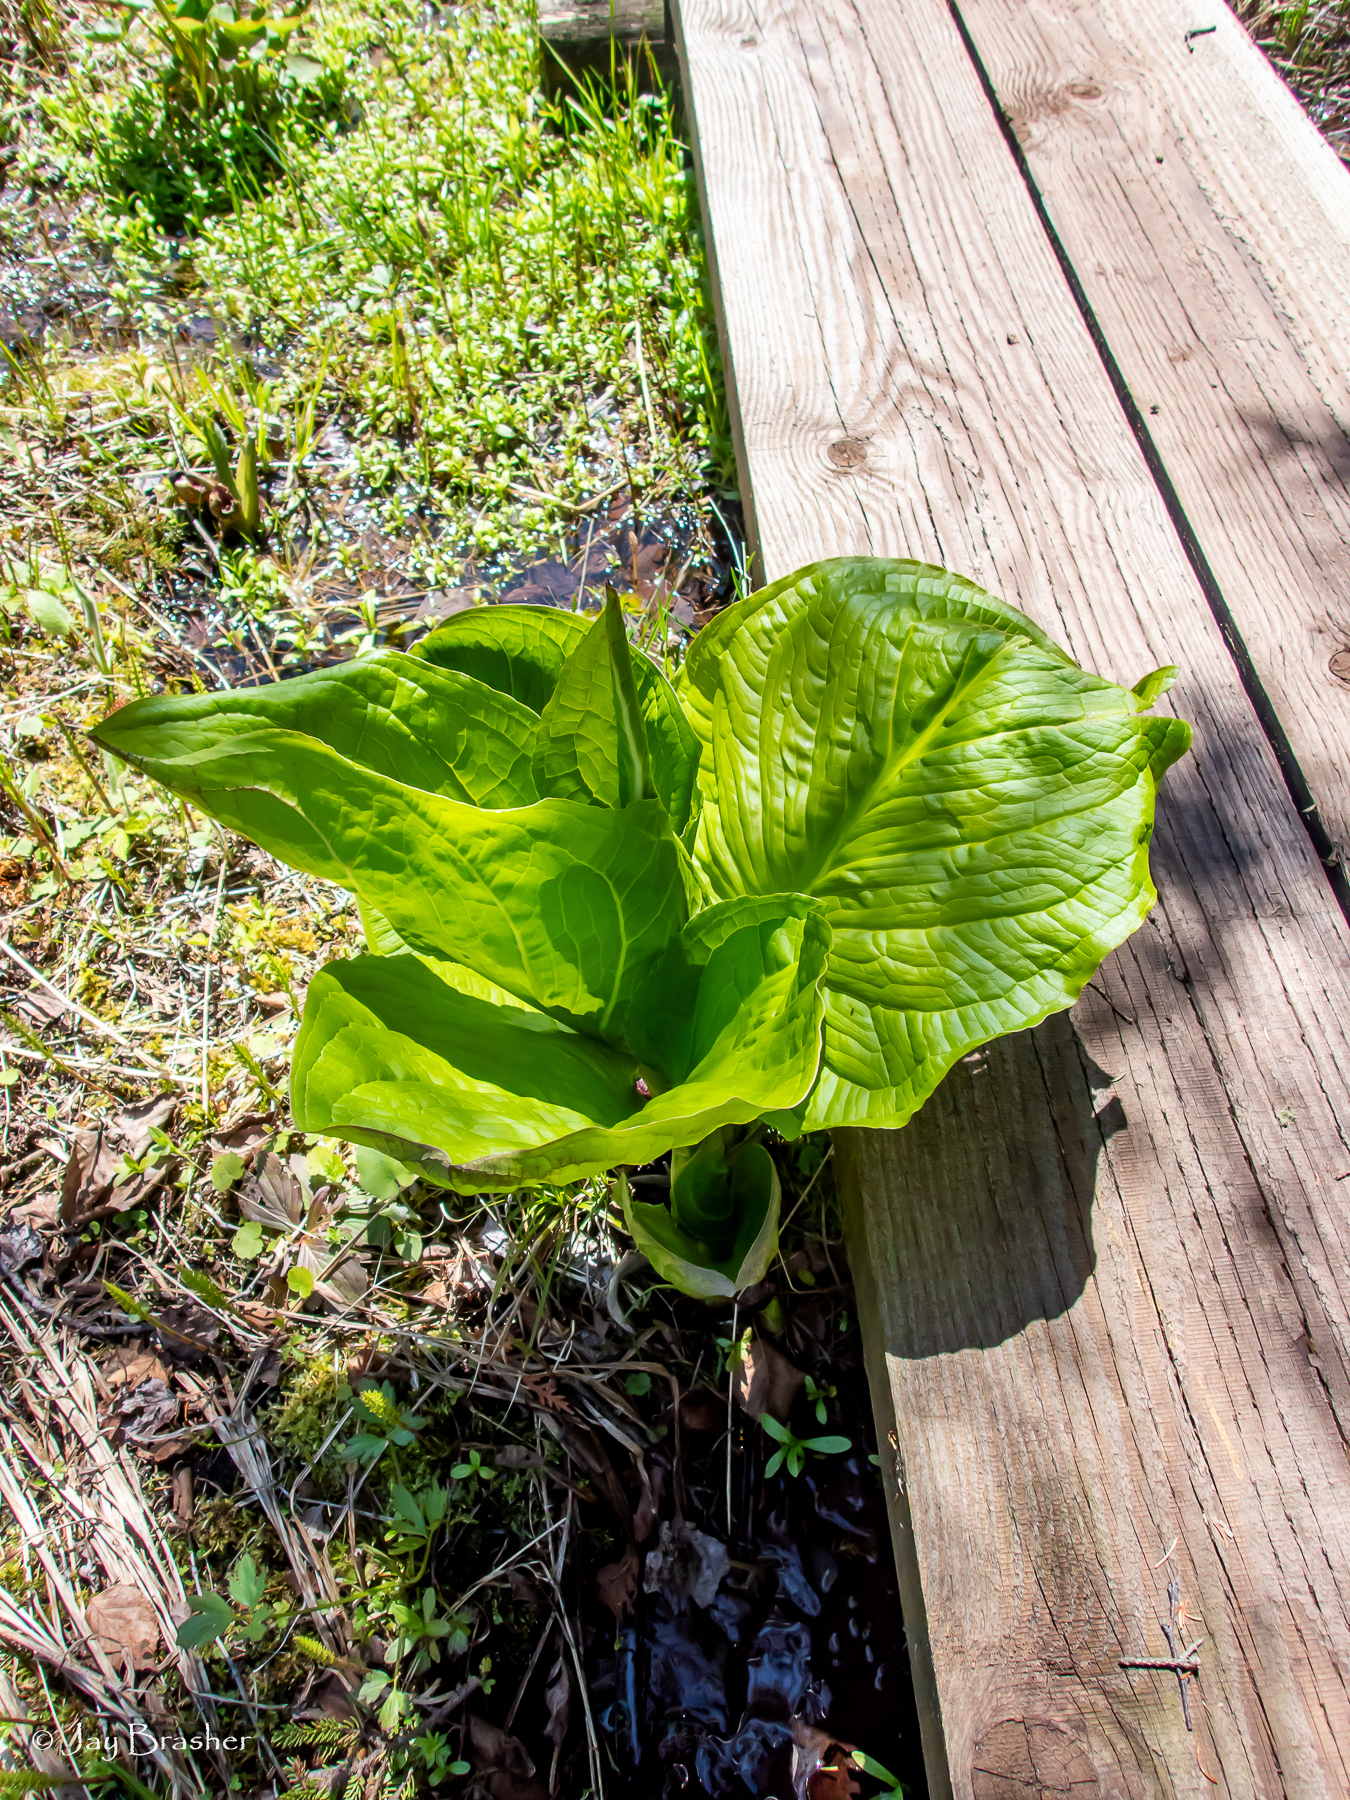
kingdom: Plantae
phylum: Tracheophyta
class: Liliopsida
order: Alismatales
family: Araceae
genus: Symplocarpus
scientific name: Symplocarpus foetidus
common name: Eastern skunk cabbage
